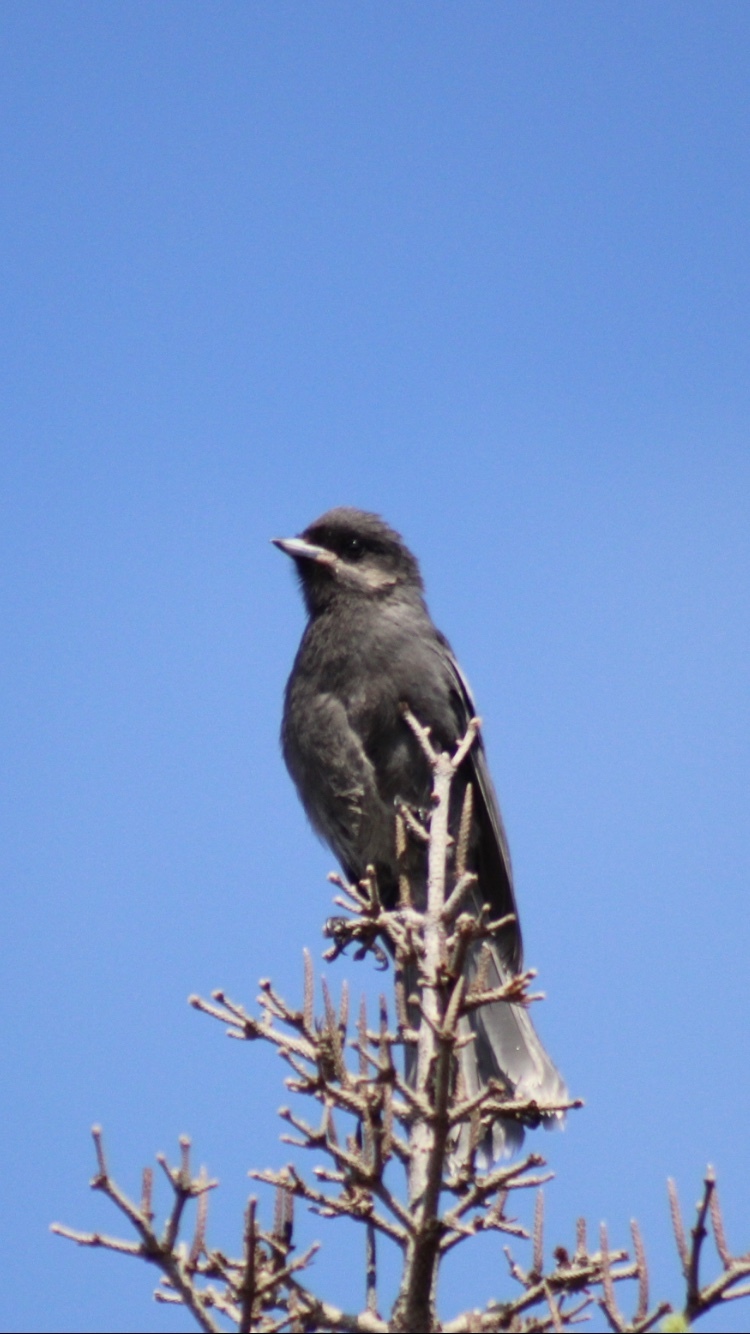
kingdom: Animalia
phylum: Chordata
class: Aves
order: Passeriformes
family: Corvidae
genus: Perisoreus
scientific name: Perisoreus canadensis
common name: Gray jay
